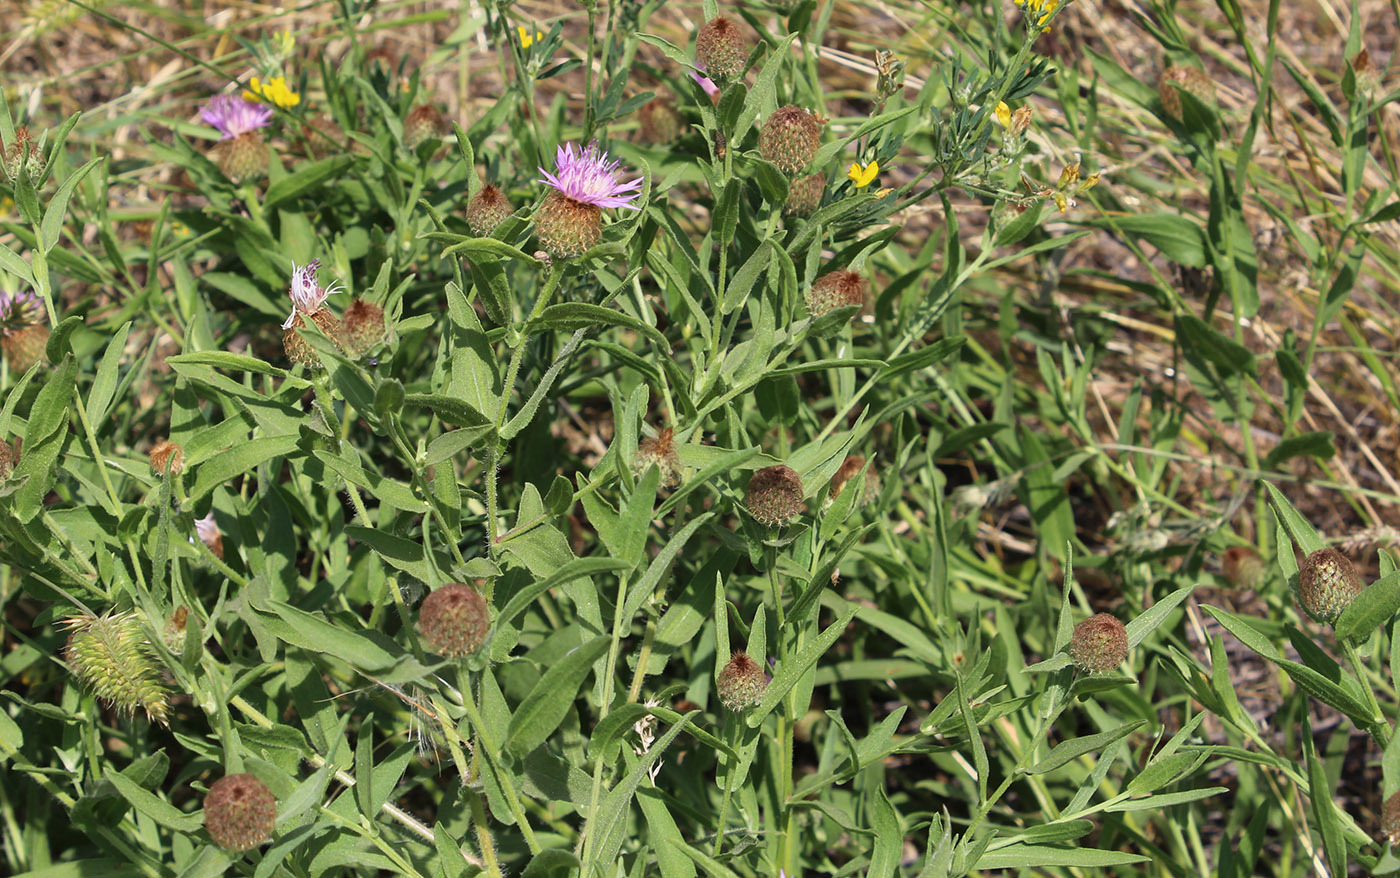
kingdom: Plantae
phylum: Tracheophyta
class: Magnoliopsida
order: Asterales
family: Asteraceae
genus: Centaurea
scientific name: Centaurea trichocephala
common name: Feather-head knapweed
